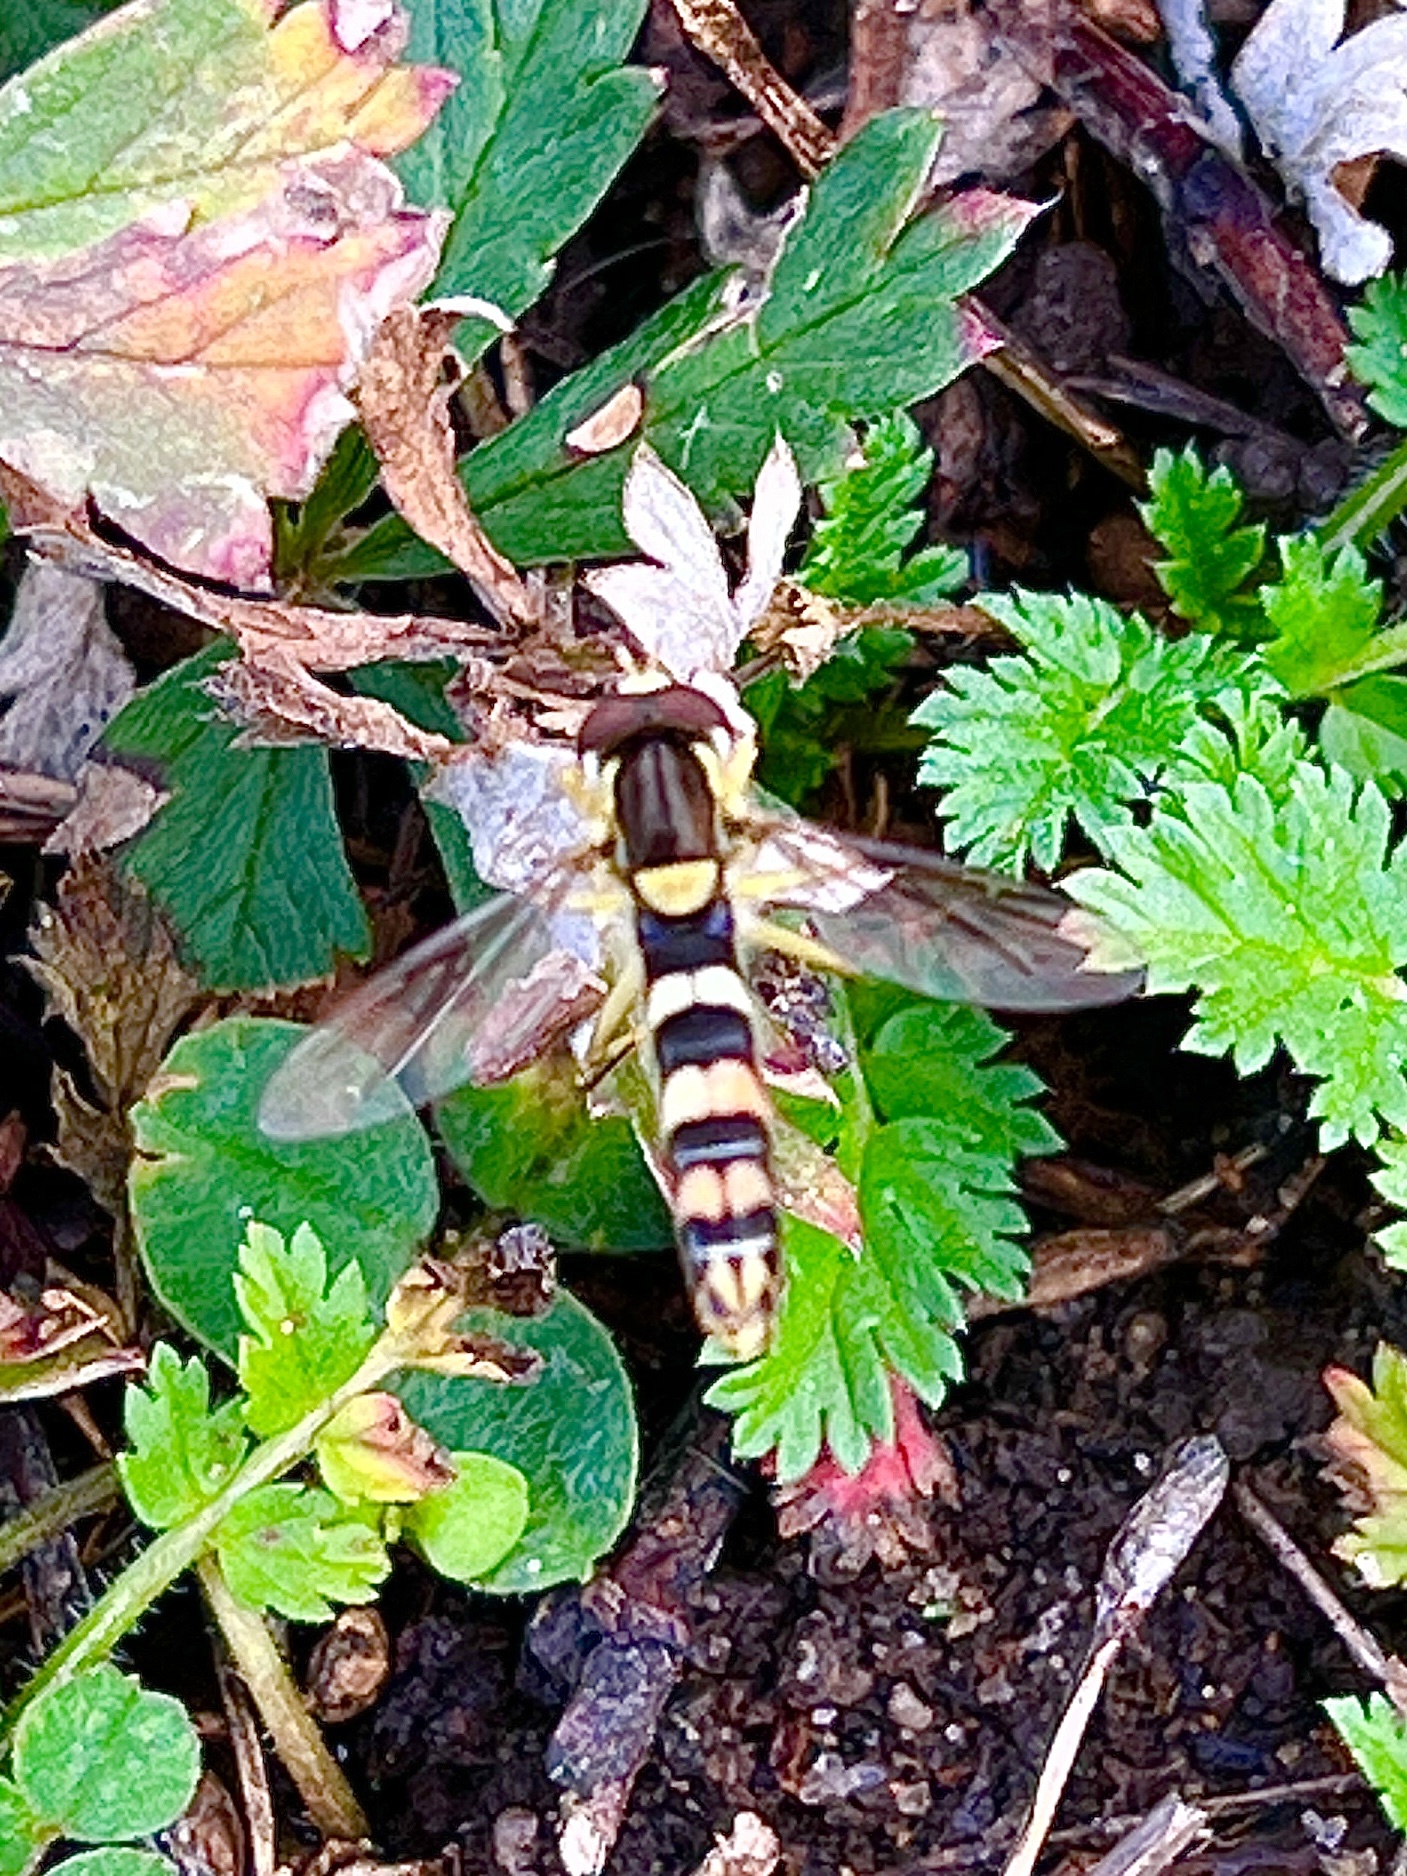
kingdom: Animalia
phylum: Arthropoda
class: Insecta
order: Diptera
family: Syrphidae
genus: Sphaerophoria
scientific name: Sphaerophoria scripta
